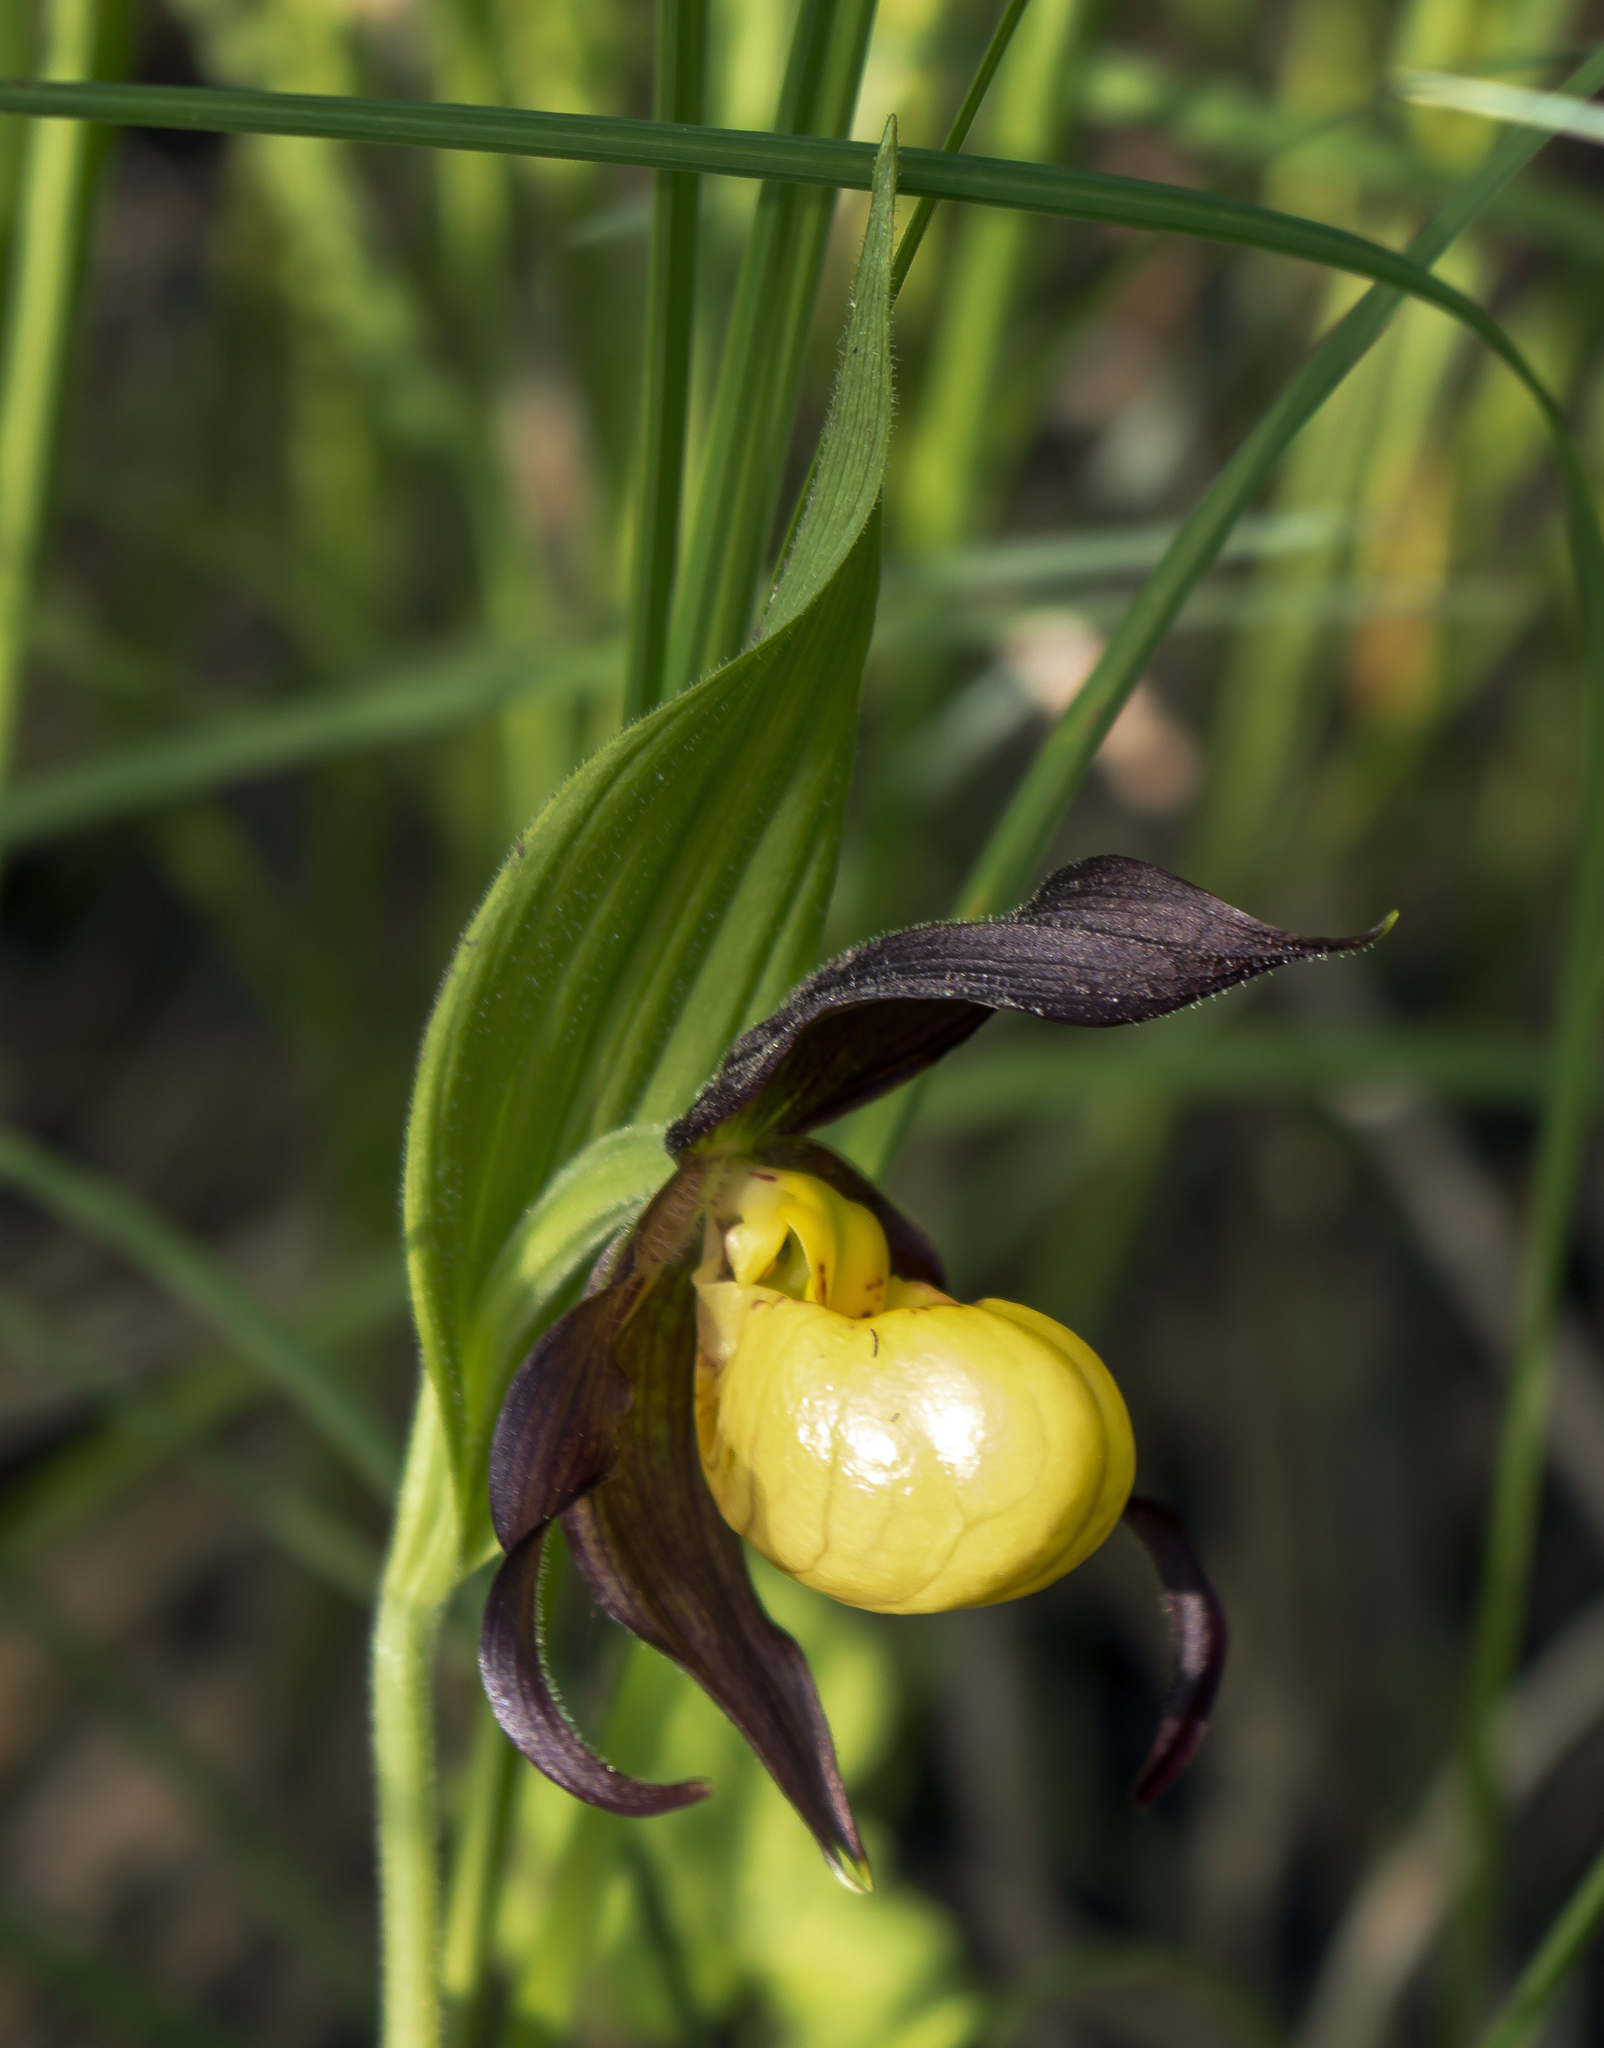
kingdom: Plantae
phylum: Tracheophyta
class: Liliopsida
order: Asparagales
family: Orchidaceae
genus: Cypripedium
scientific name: Cypripedium parviflorum
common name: American yellow lady's-slipper
